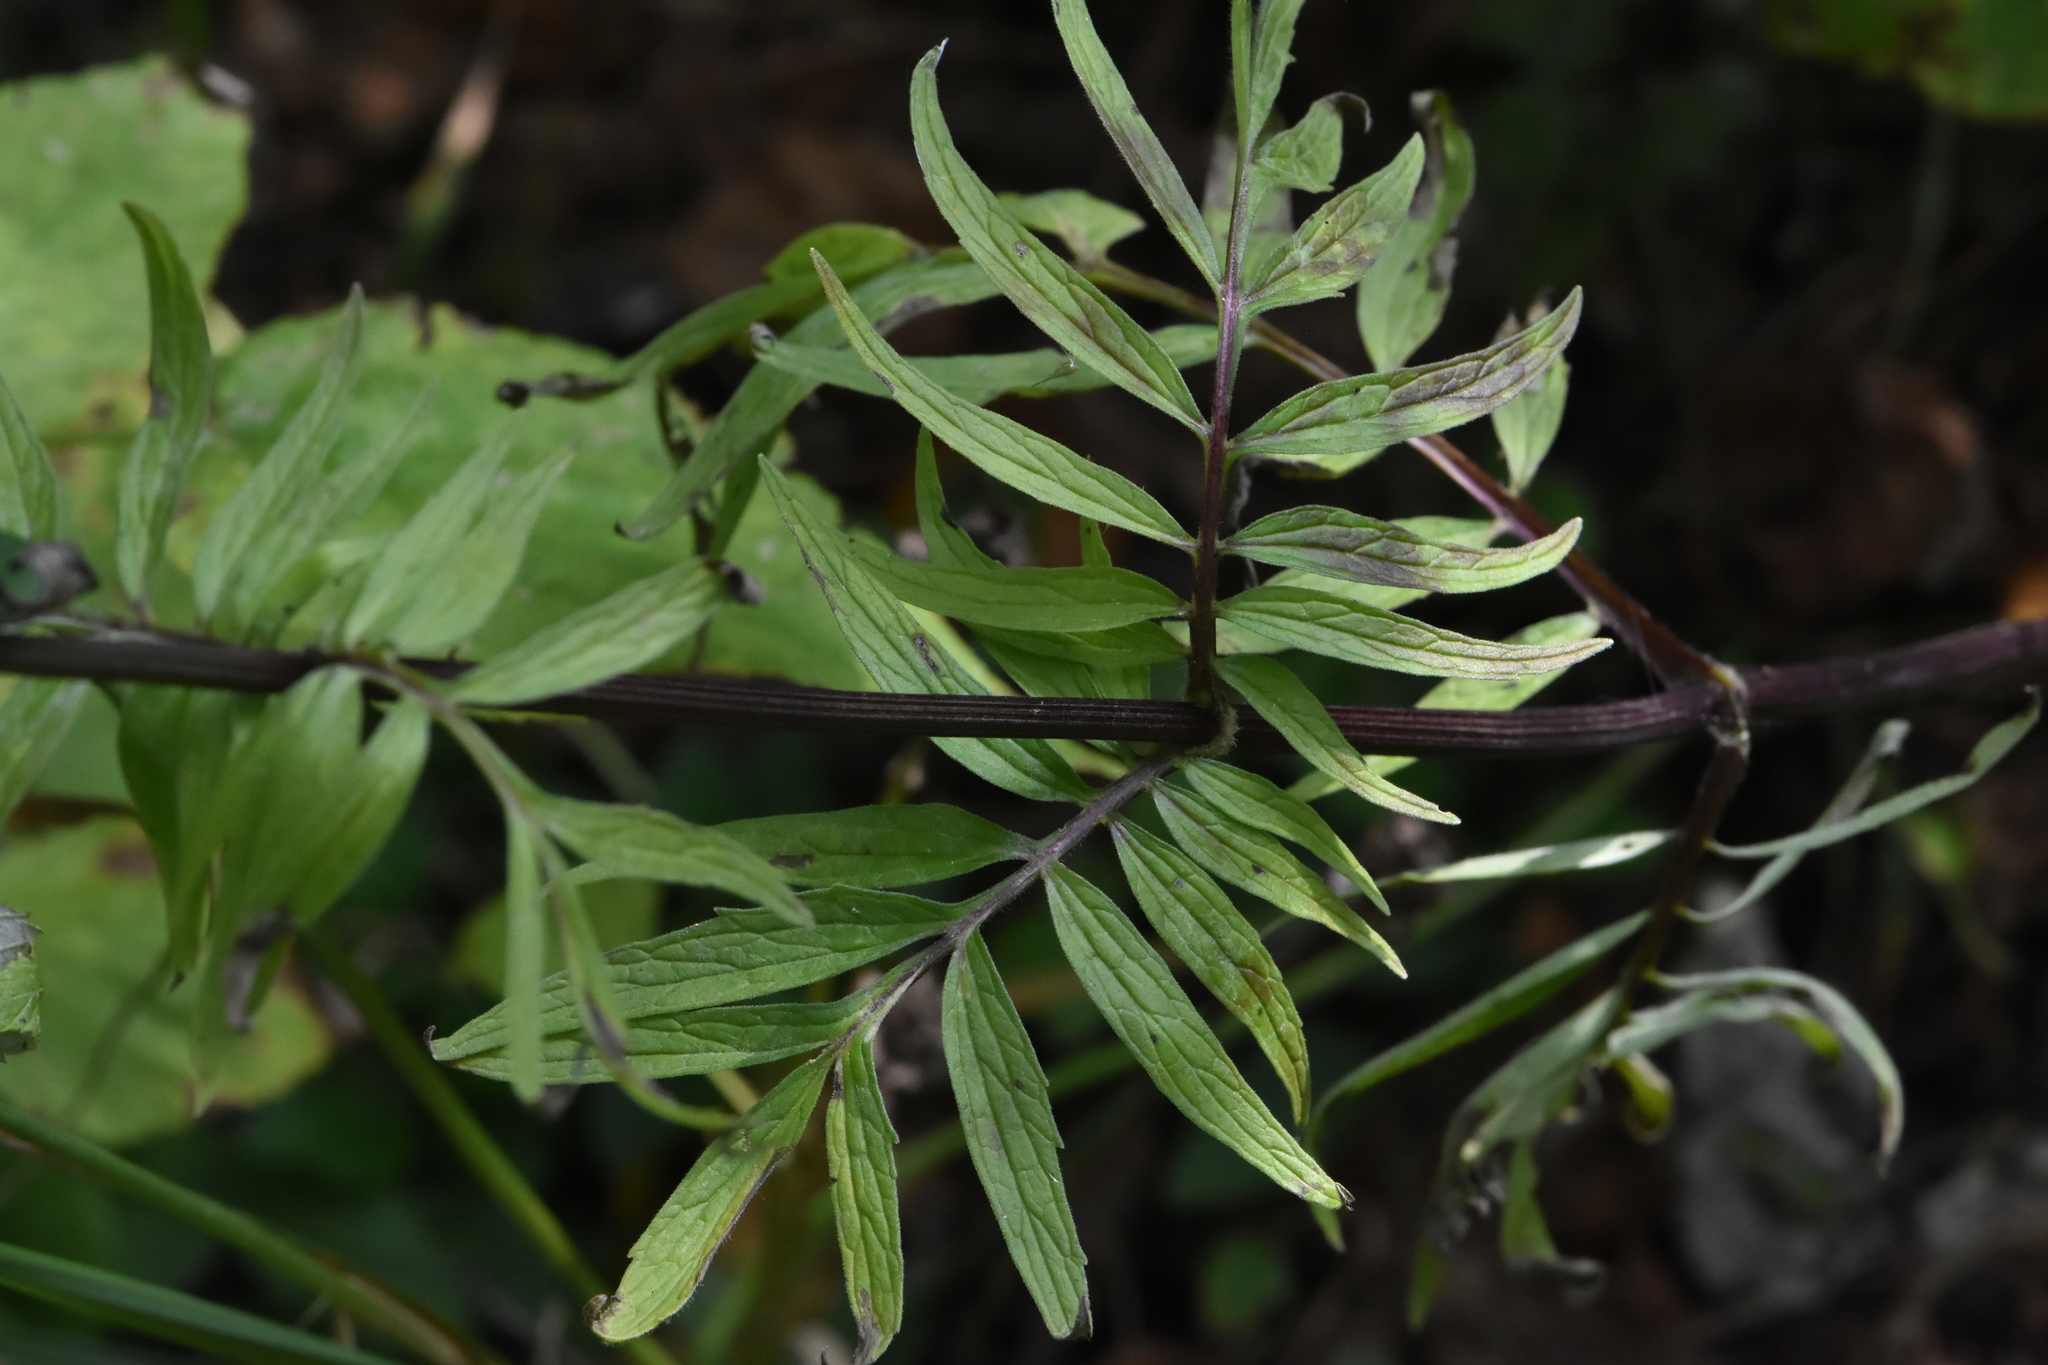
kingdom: Plantae
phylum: Tracheophyta
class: Magnoliopsida
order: Dipsacales
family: Caprifoliaceae
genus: Valeriana
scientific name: Valeriana officinalis
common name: Common valerian
